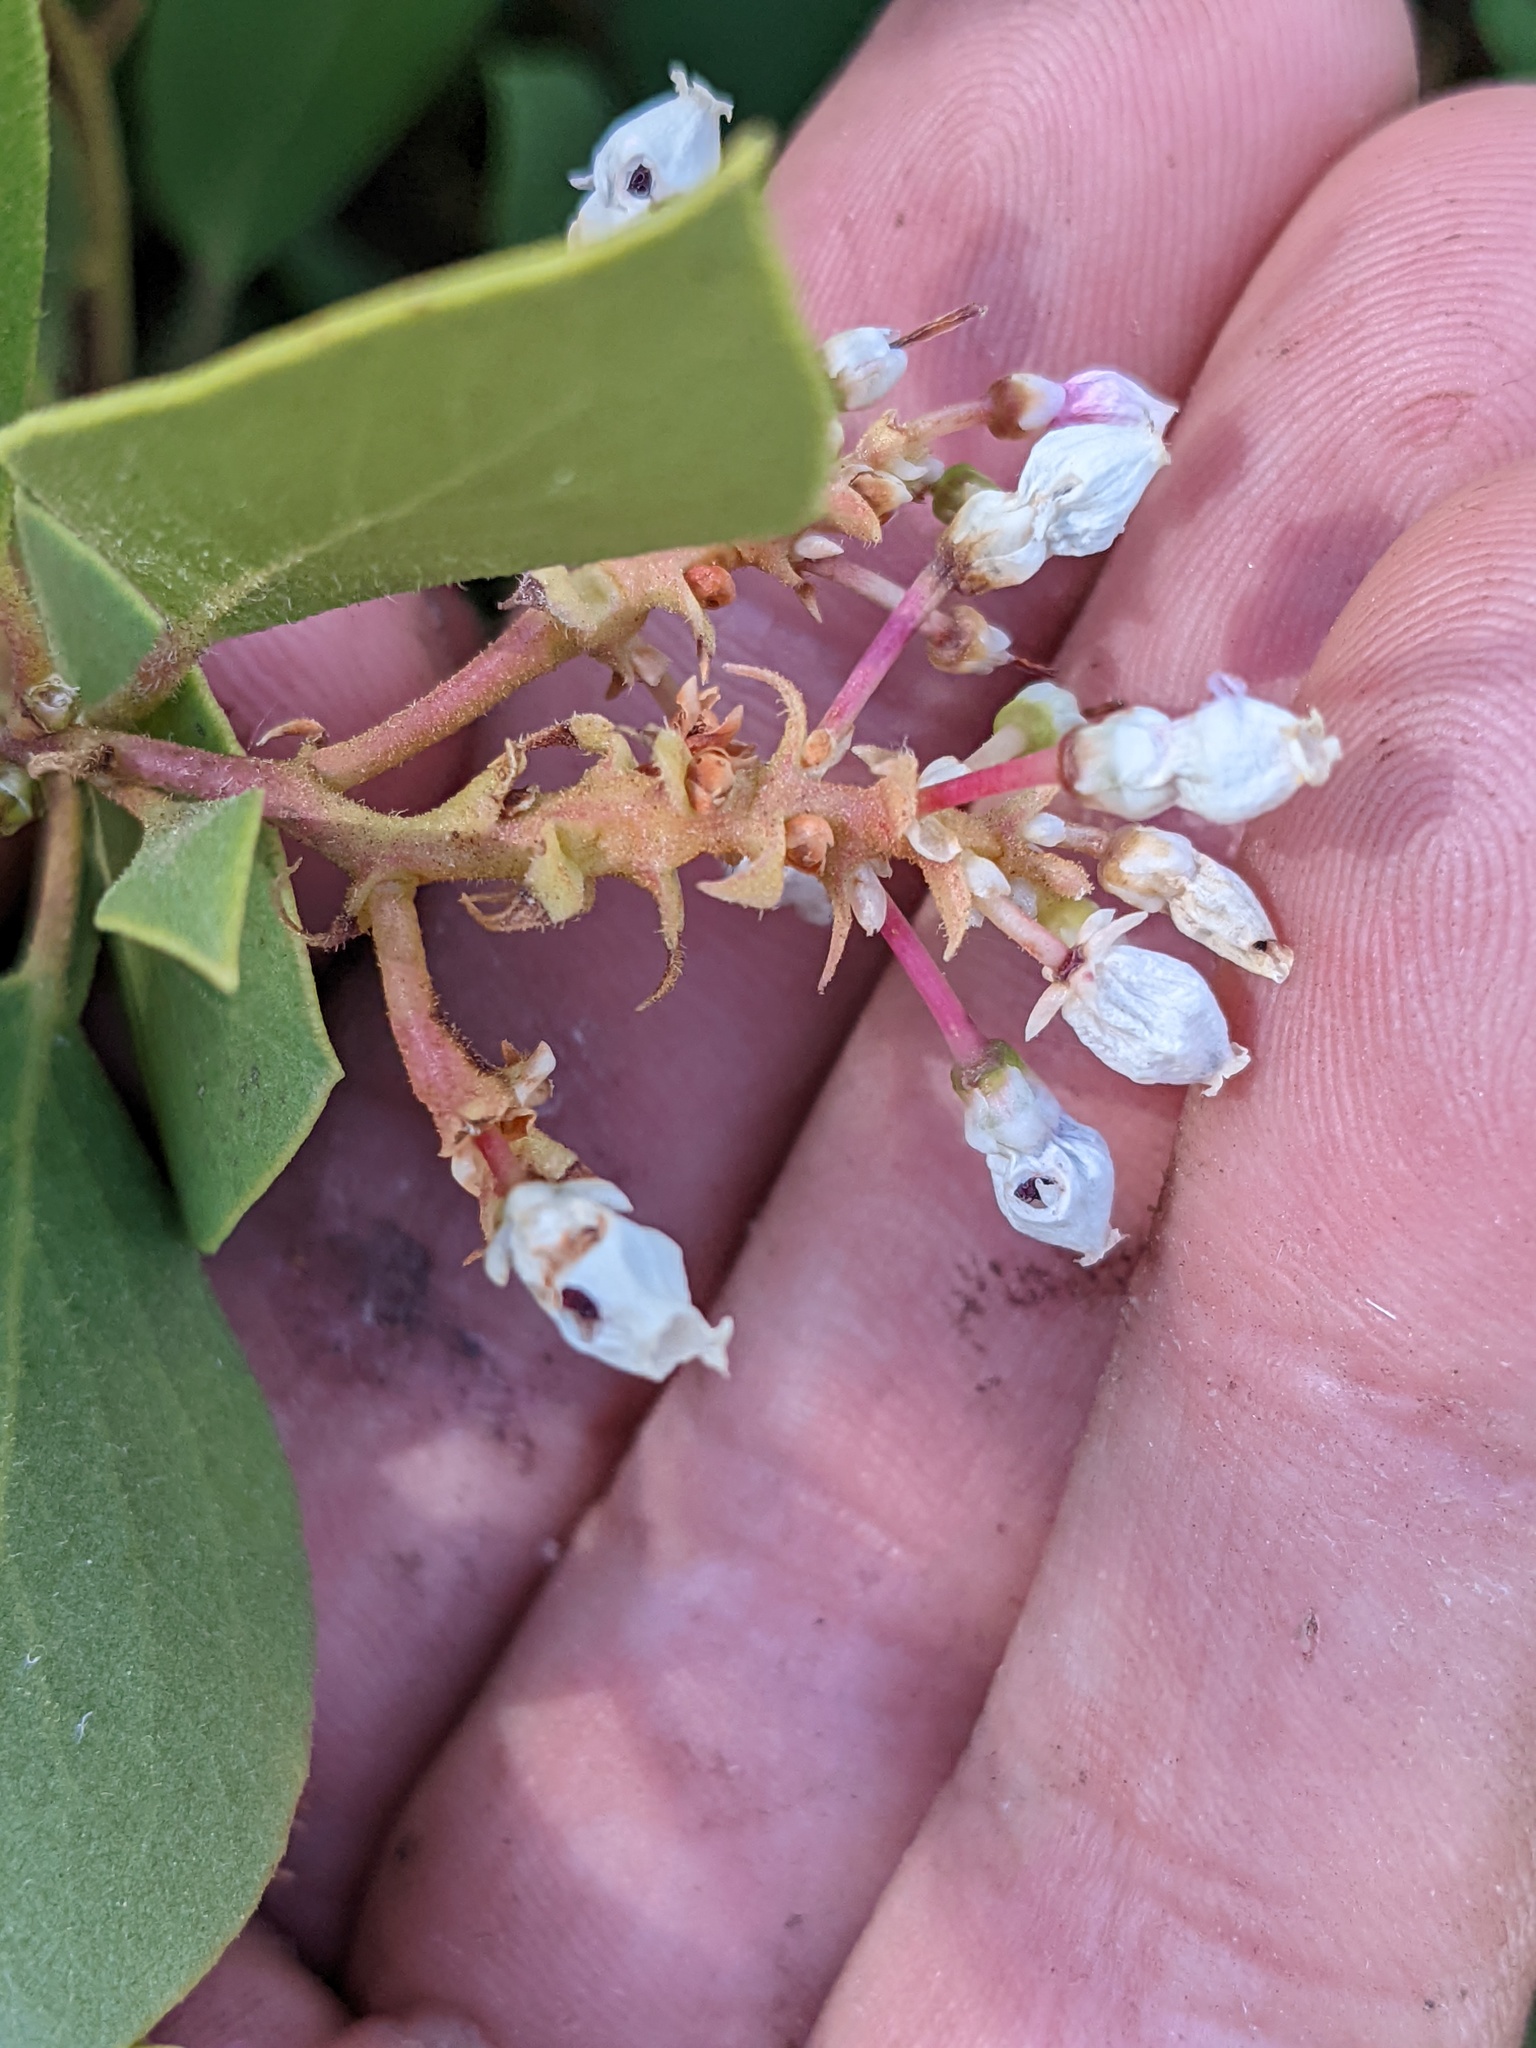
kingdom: Plantae
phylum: Tracheophyta
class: Magnoliopsida
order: Ericales
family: Ericaceae
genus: Arctostaphylos
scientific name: Arctostaphylos patula
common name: Green-leaf manzanita
